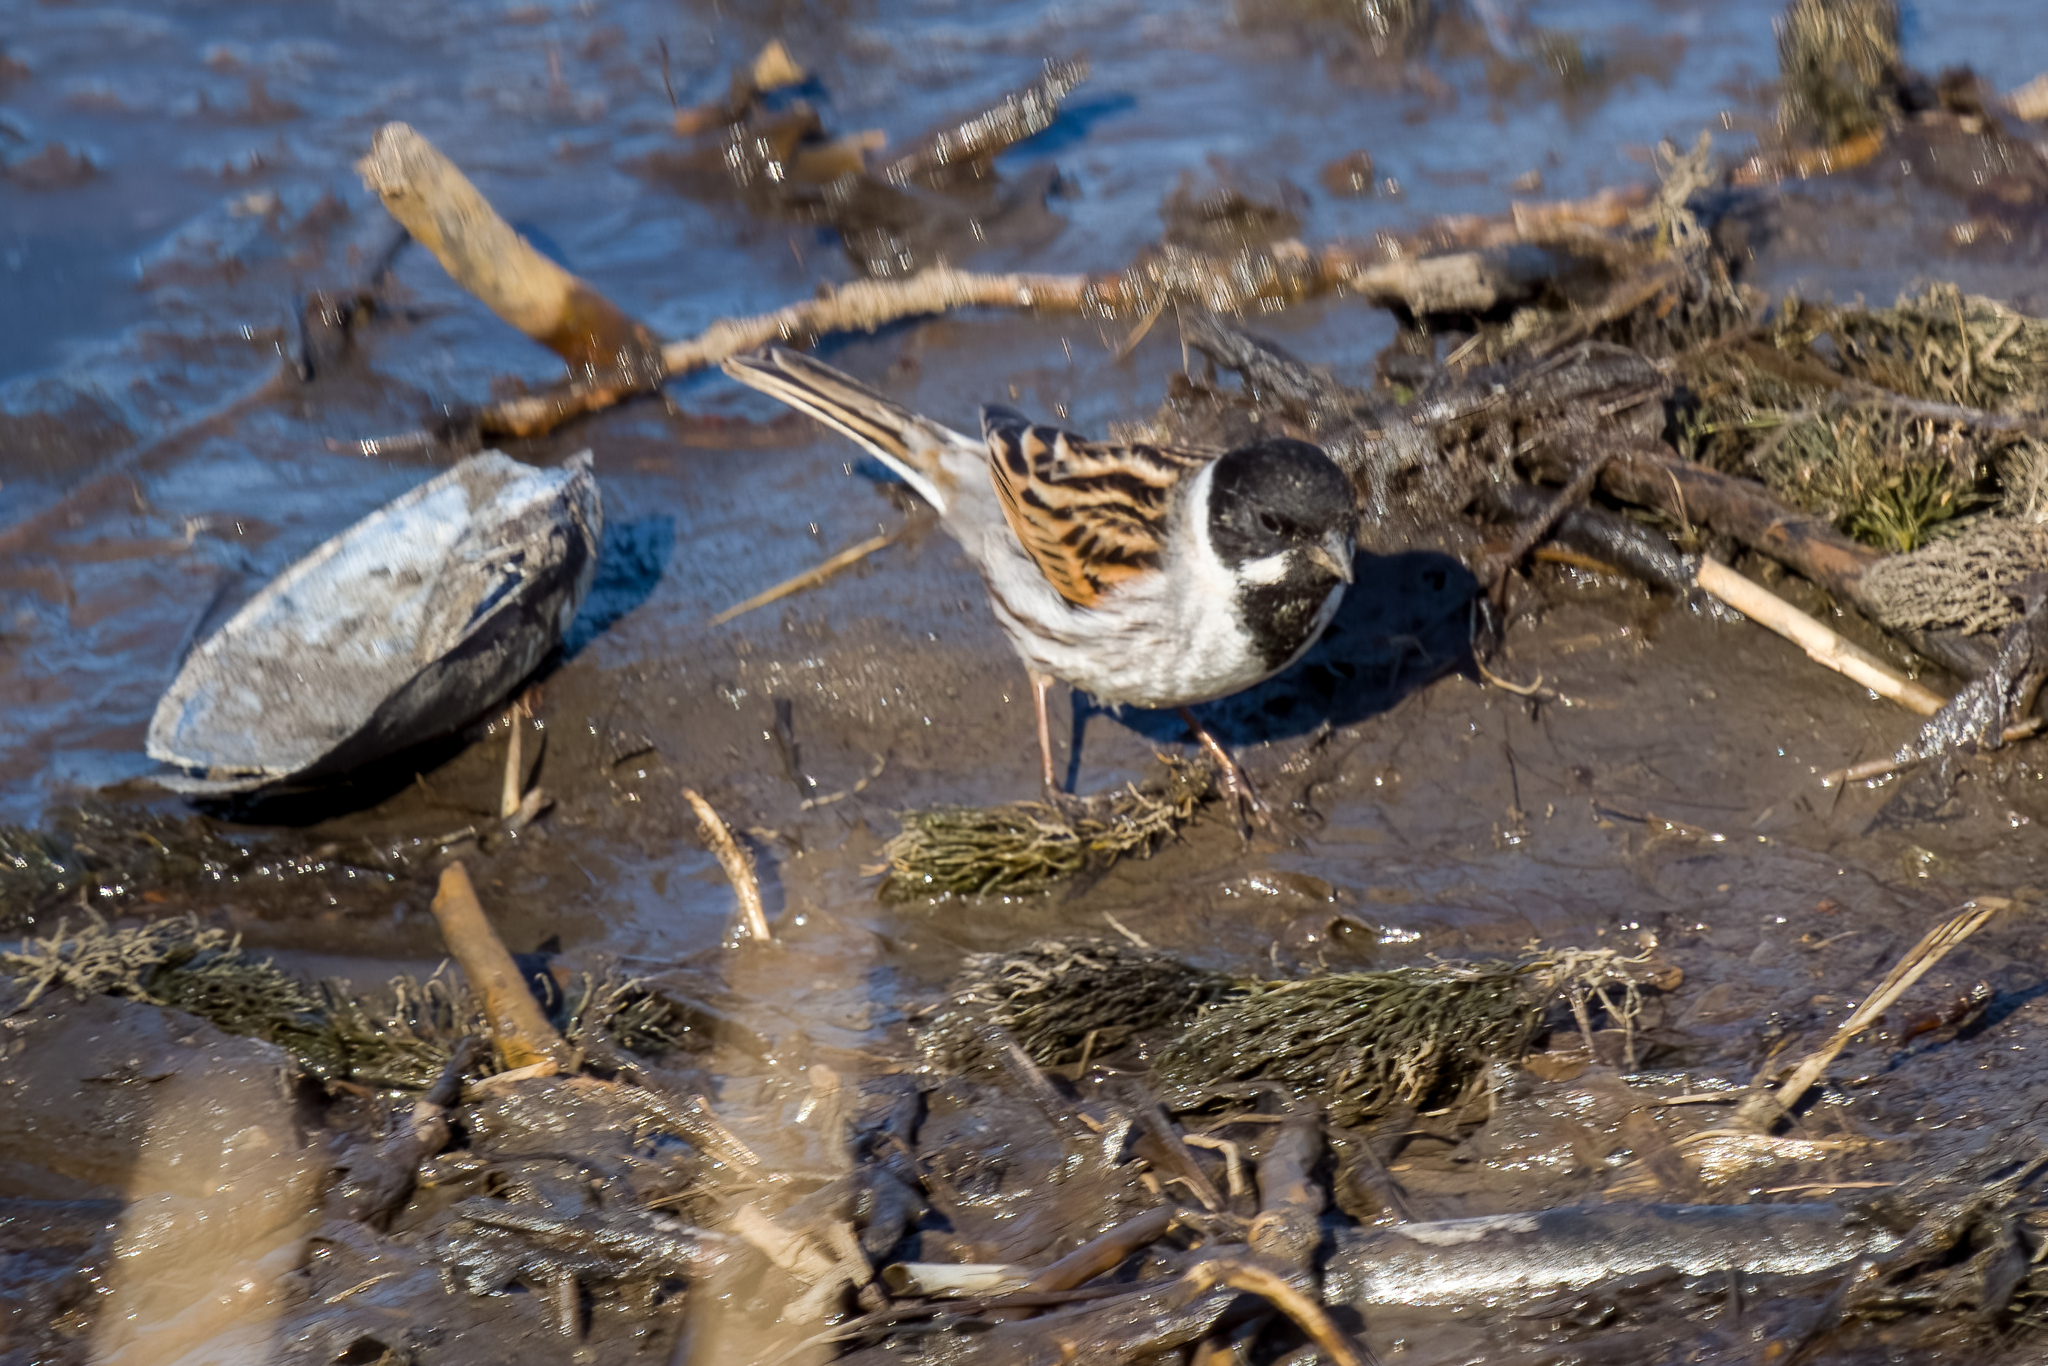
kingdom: Animalia
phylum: Chordata
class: Aves
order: Passeriformes
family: Emberizidae
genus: Emberiza
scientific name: Emberiza schoeniclus
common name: Reed bunting
